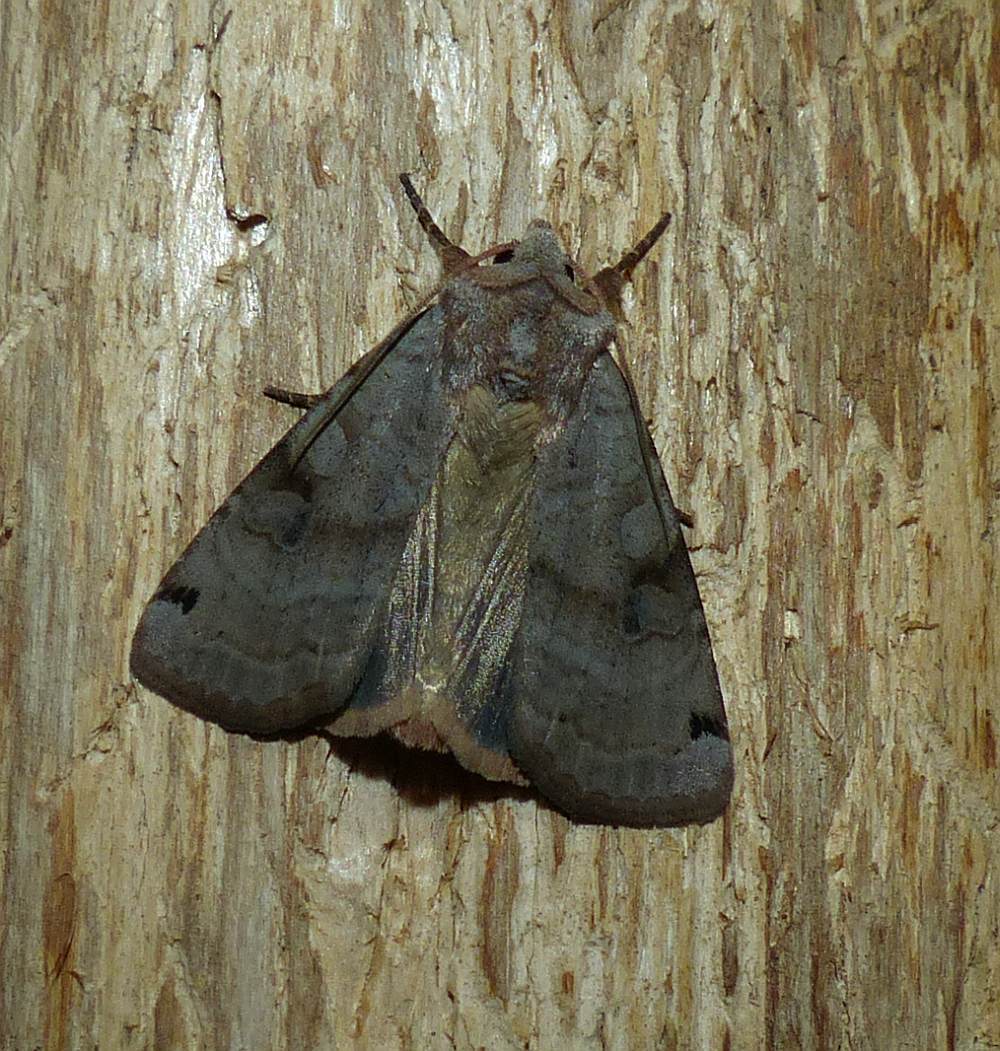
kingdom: Animalia
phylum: Arthropoda
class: Insecta
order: Lepidoptera
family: Noctuidae
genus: Xestia
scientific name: Xestia smithii
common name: Smith's dart
